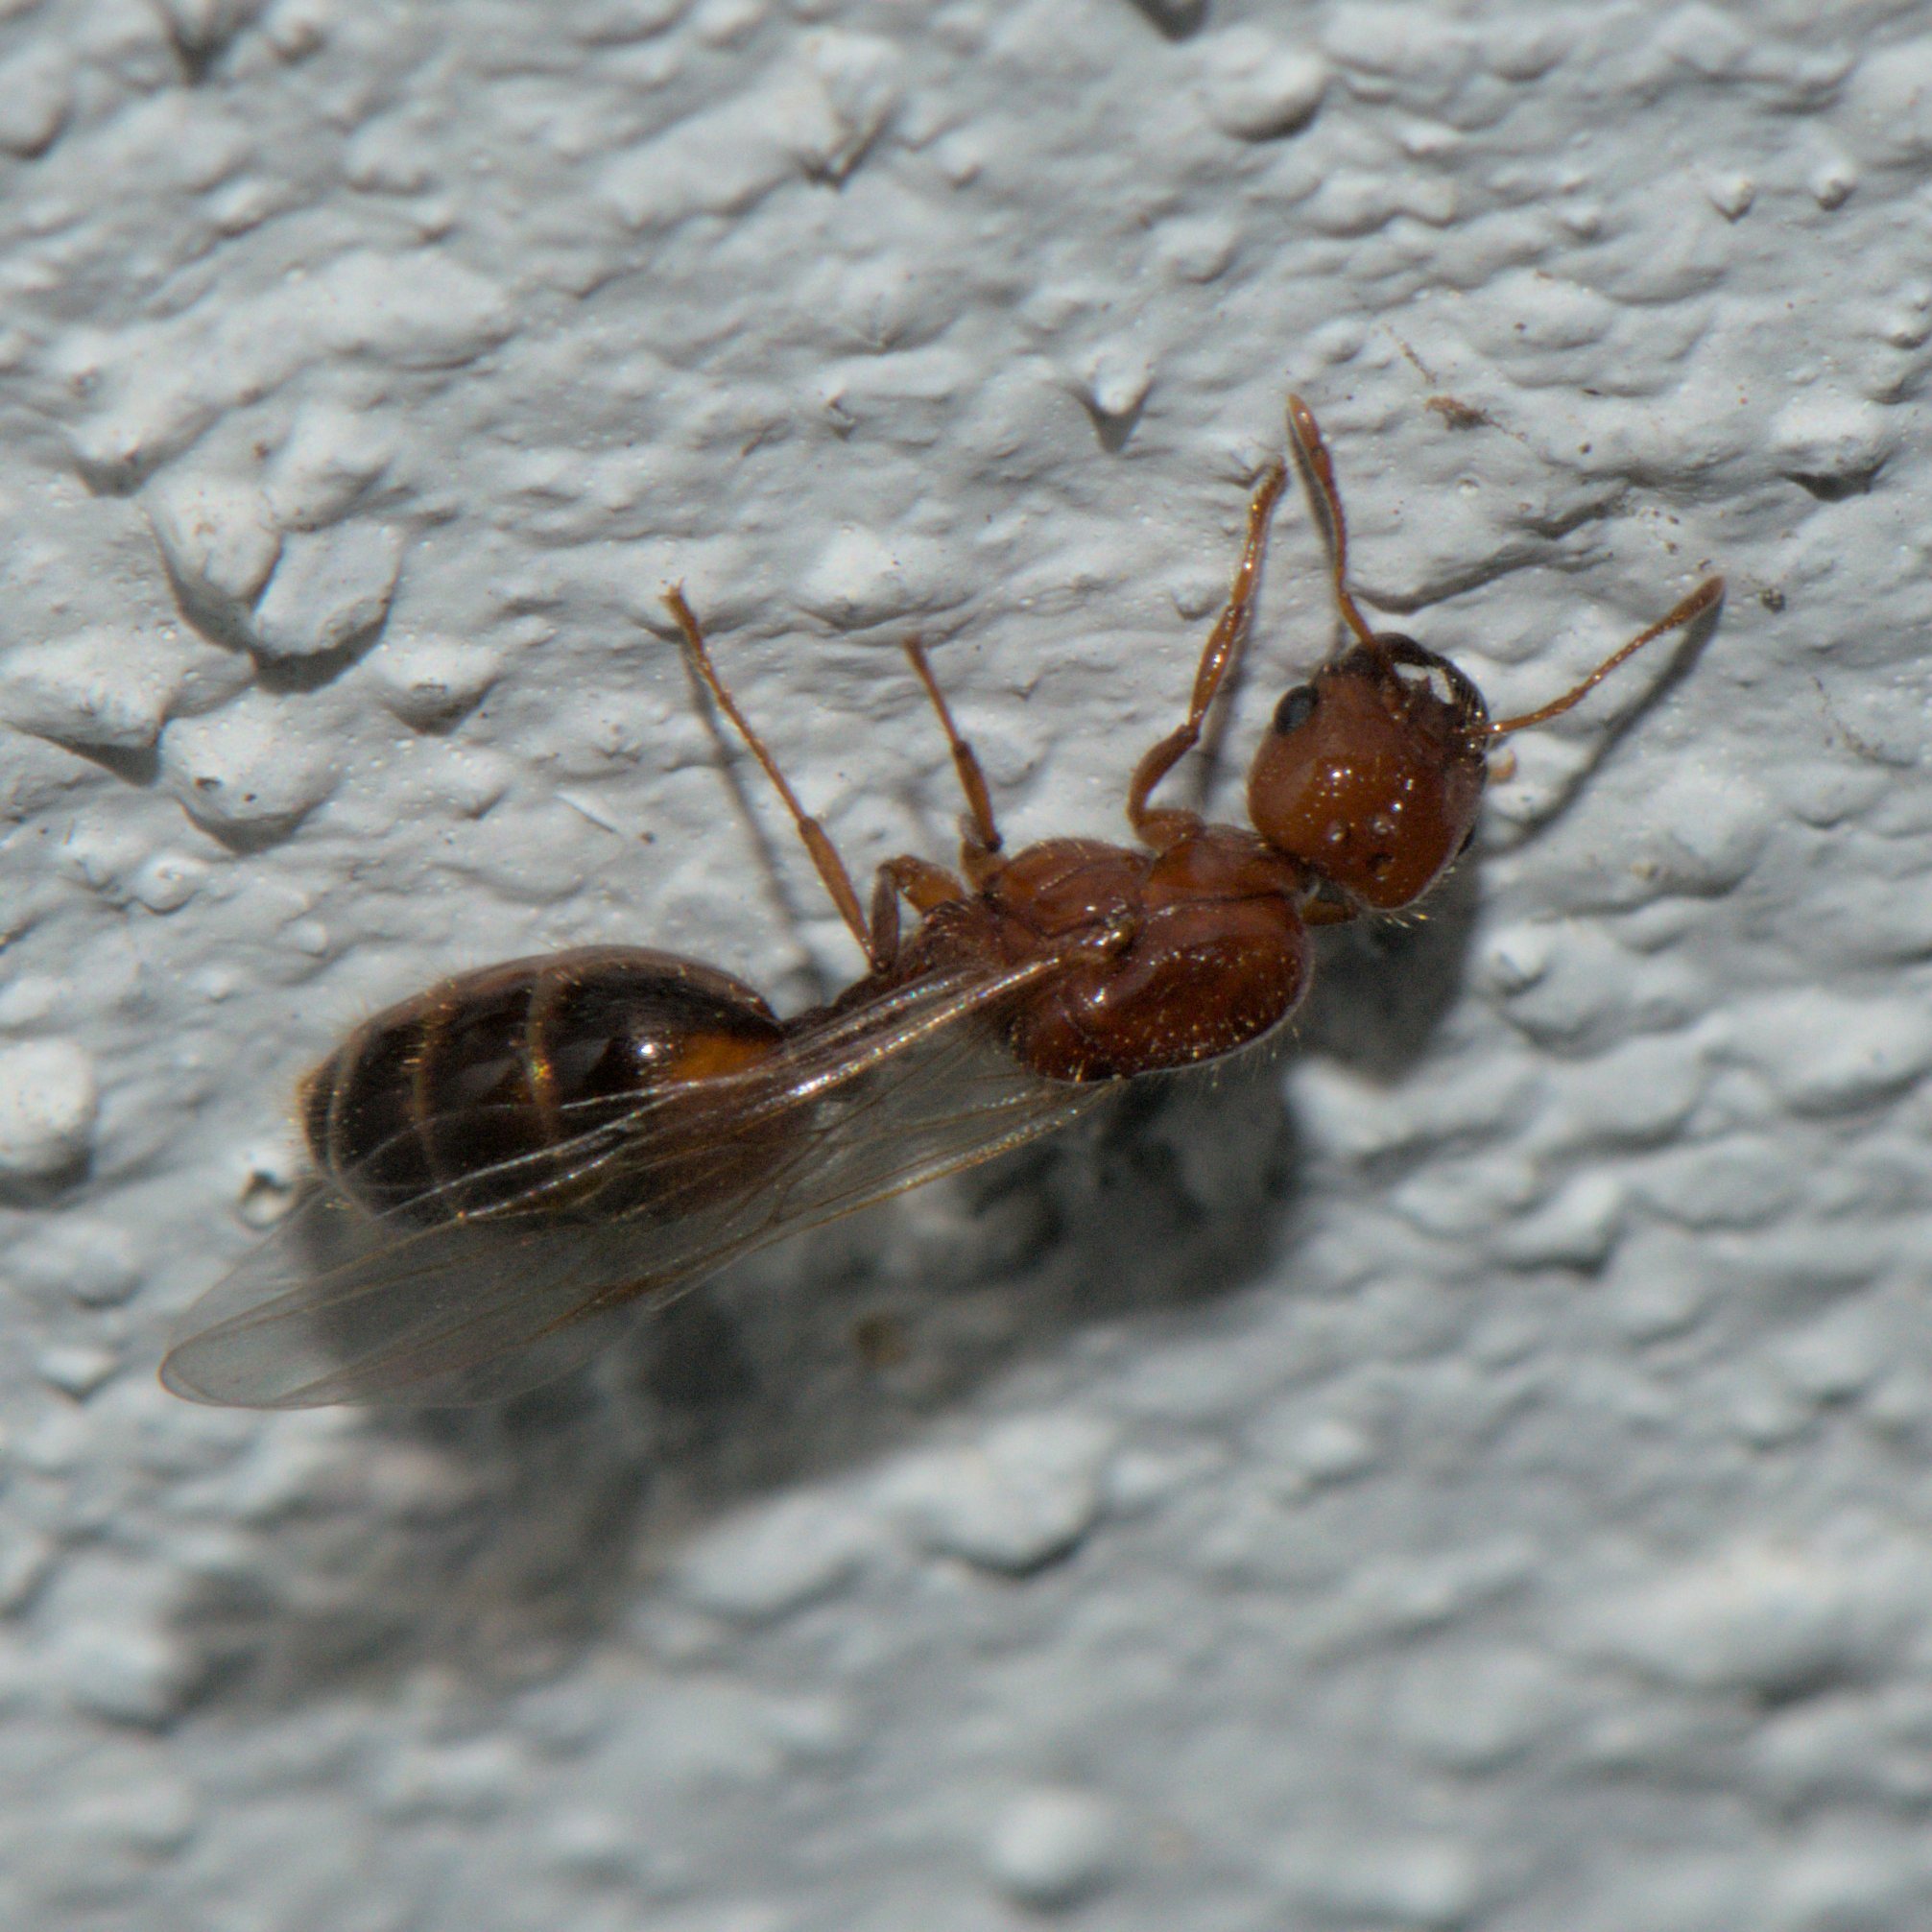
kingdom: Animalia
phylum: Arthropoda
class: Insecta
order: Hymenoptera
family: Formicidae
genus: Solenopsis
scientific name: Solenopsis geminata
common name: Tropical fire ant
